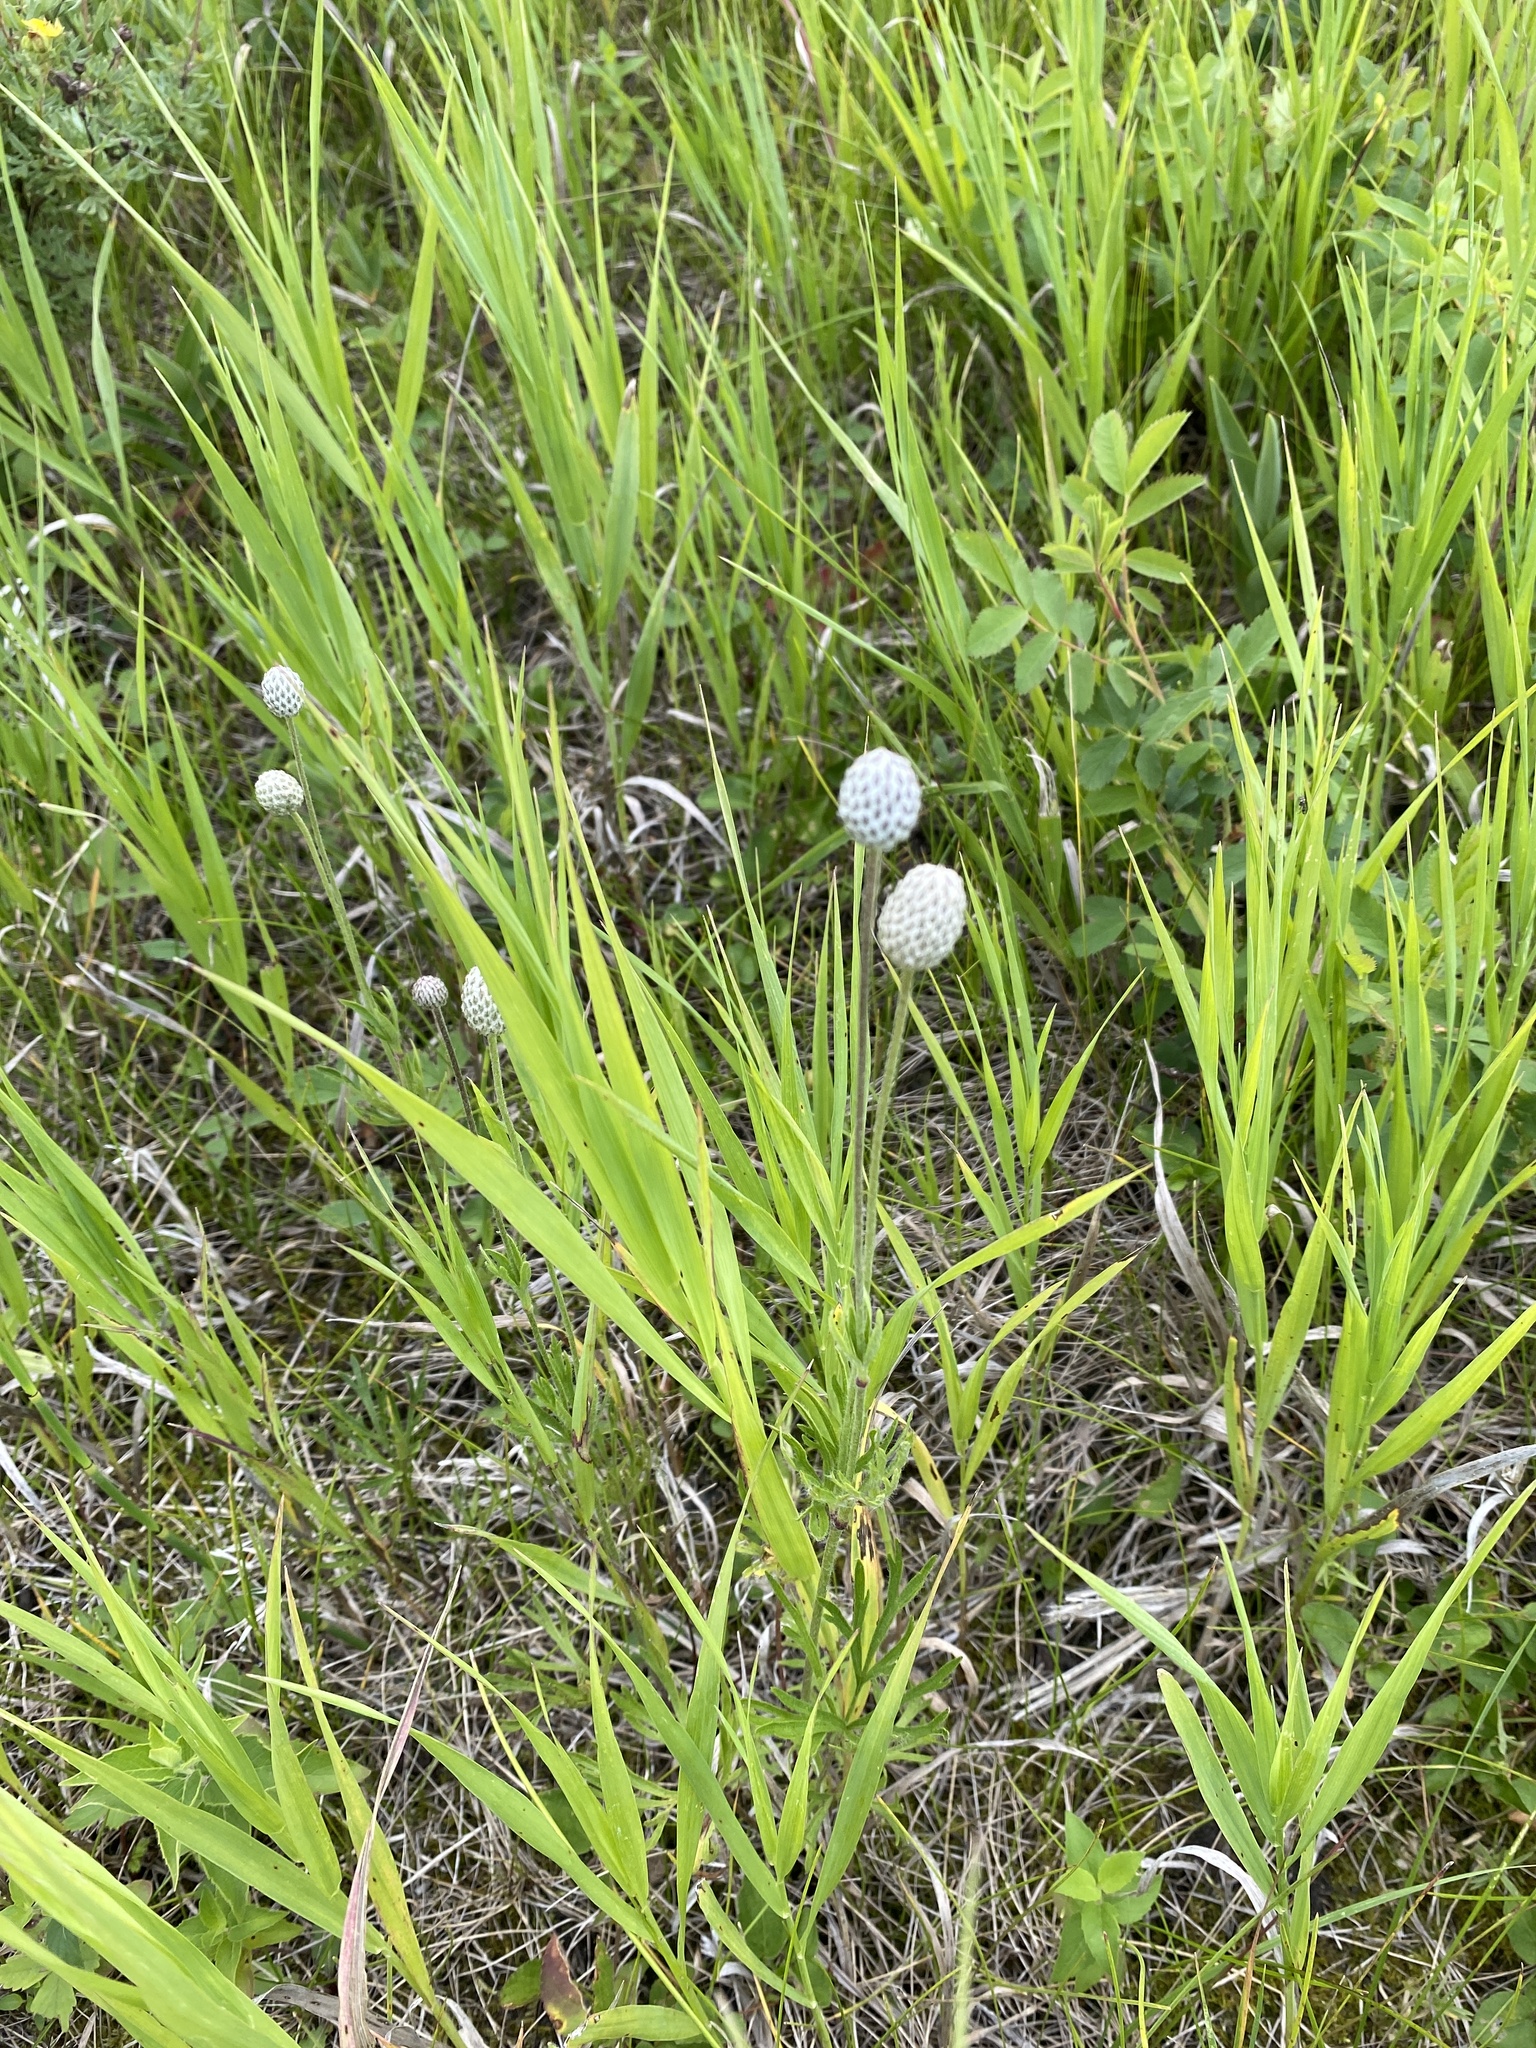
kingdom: Plantae
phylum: Tracheophyta
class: Magnoliopsida
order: Ranunculales
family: Ranunculaceae
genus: Anemone
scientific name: Anemone multifida
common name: Bird's-foot anemone
